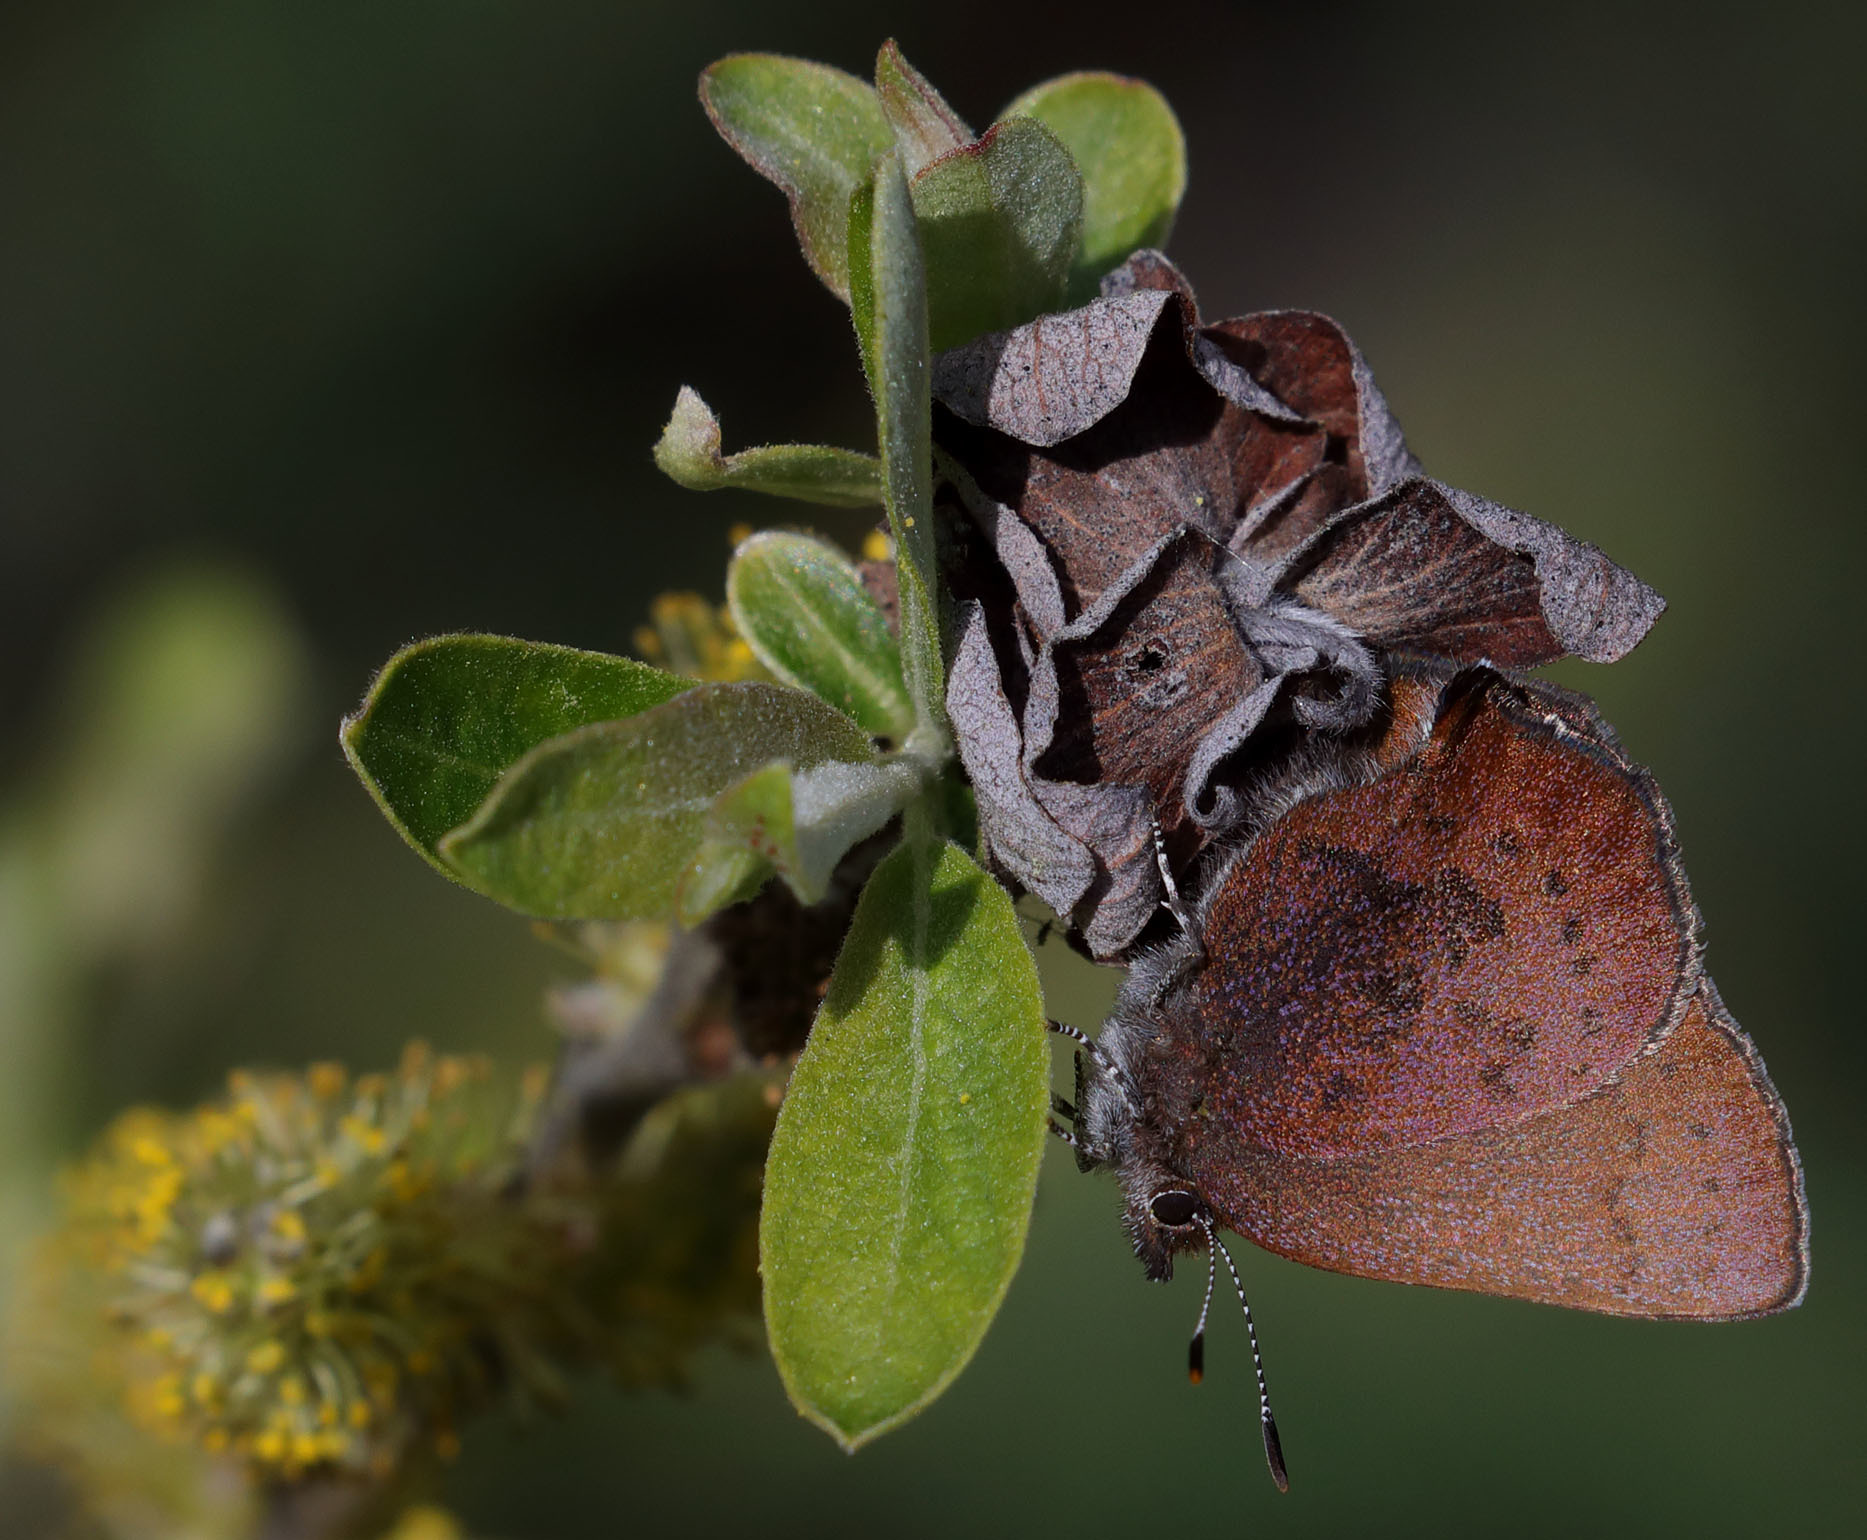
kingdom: Animalia
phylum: Arthropoda
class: Insecta
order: Lepidoptera
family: Lycaenidae
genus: Incisalia
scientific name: Incisalia irioides
